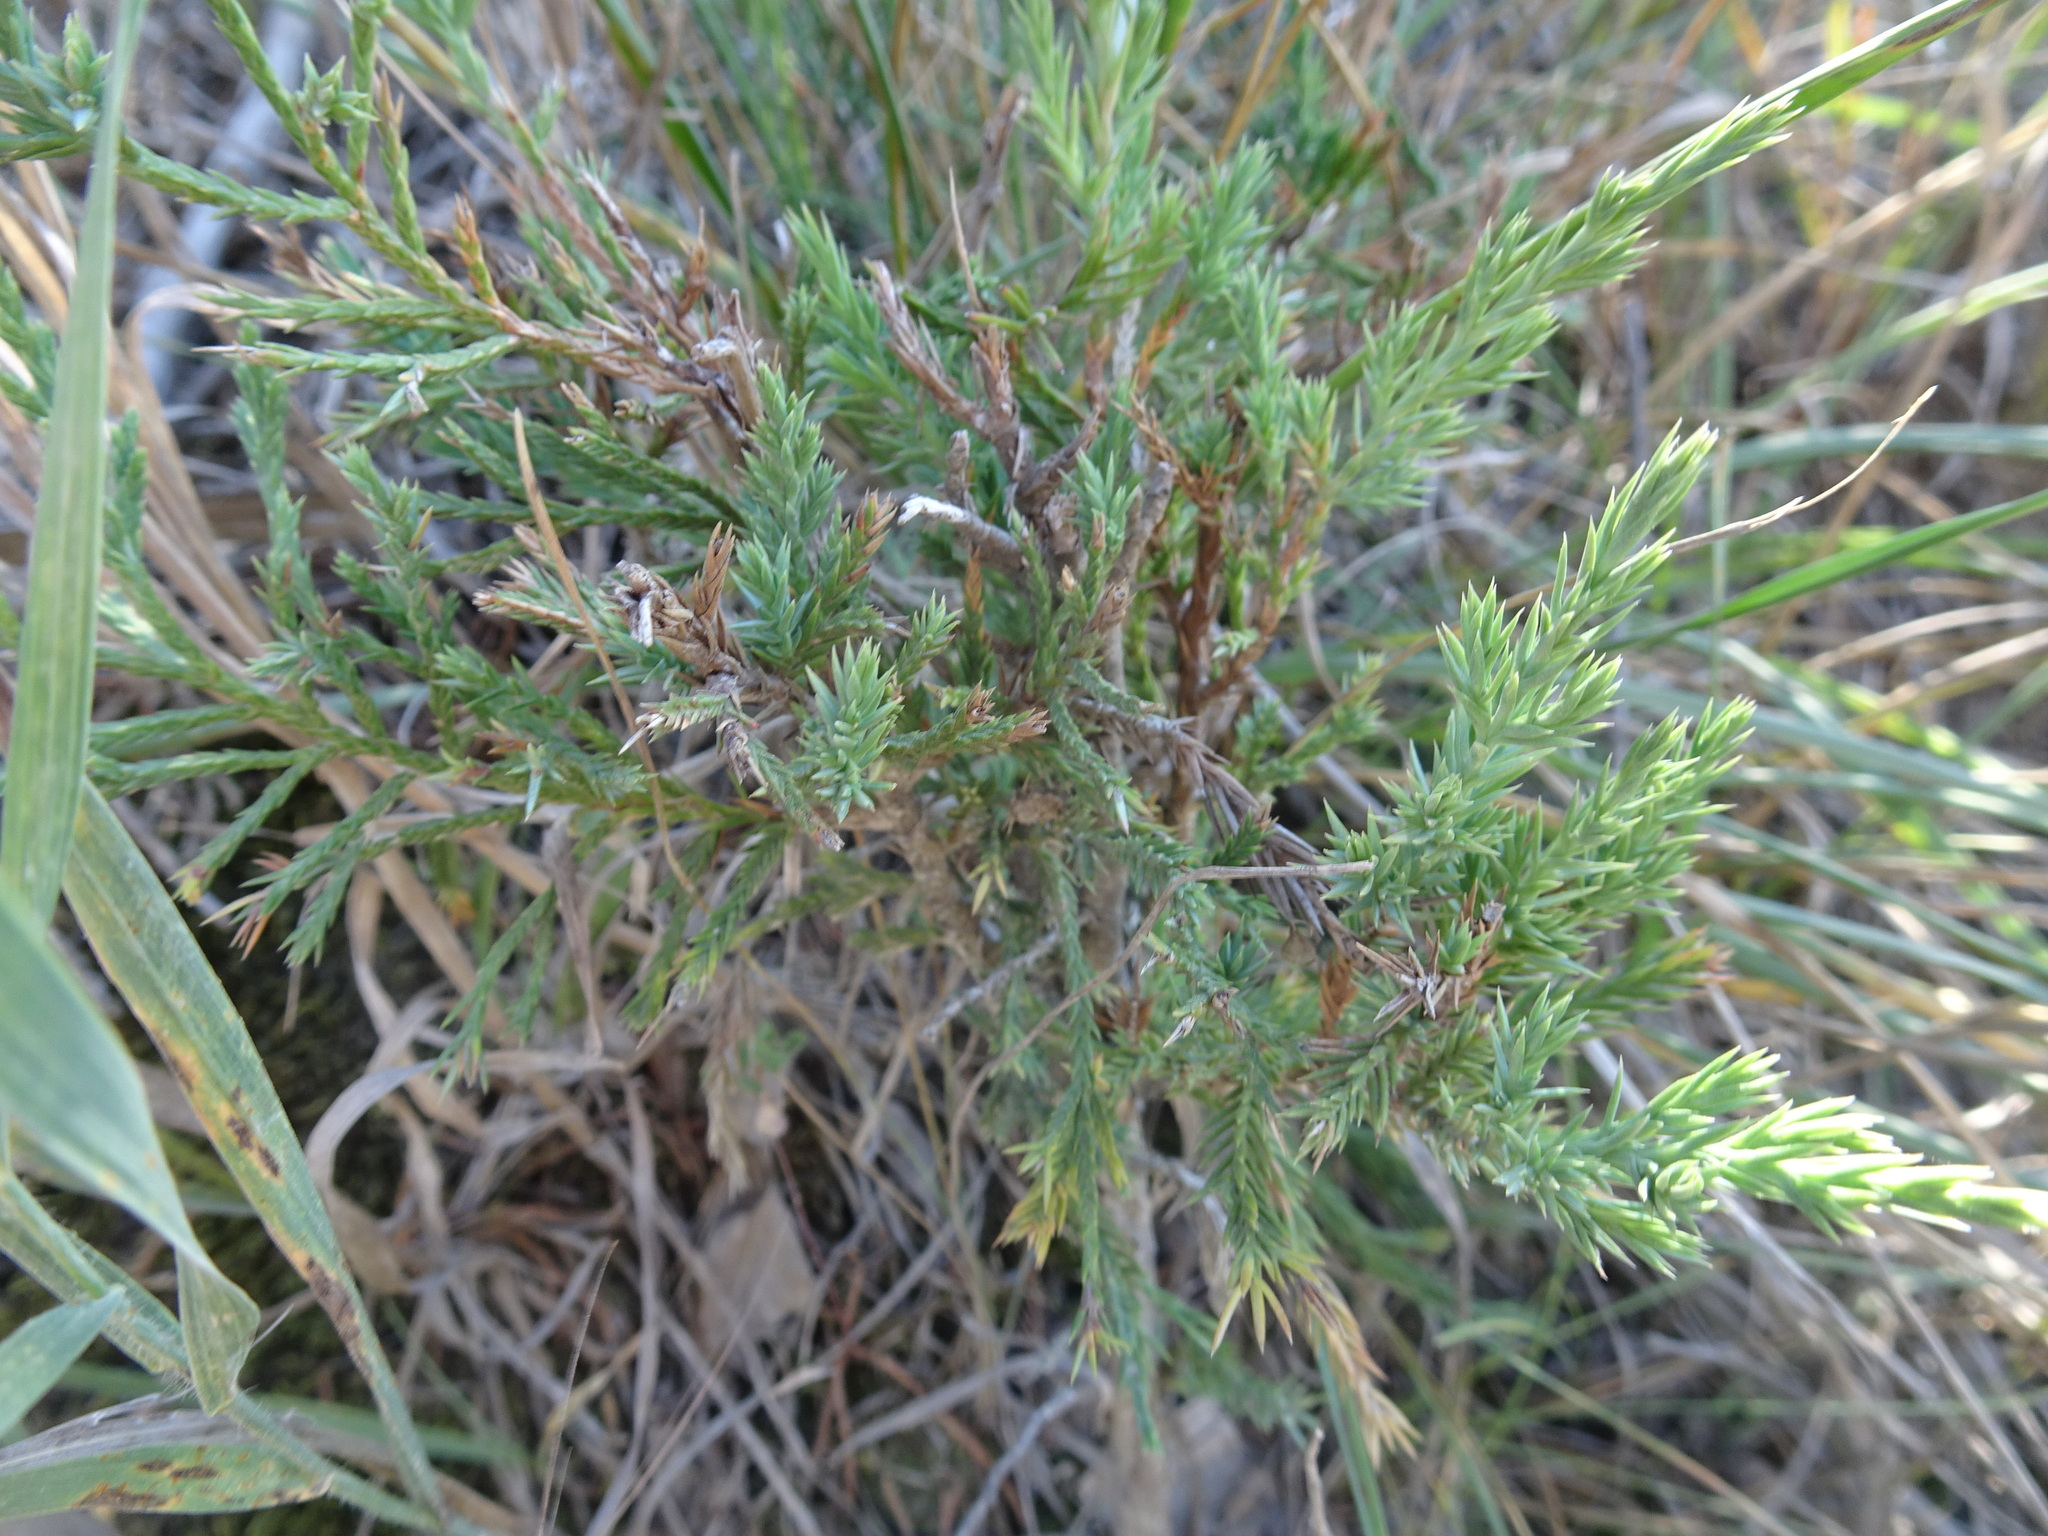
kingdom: Plantae
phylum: Tracheophyta
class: Pinopsida
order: Pinales
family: Cupressaceae
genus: Juniperus
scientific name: Juniperus virginiana
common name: Red juniper
